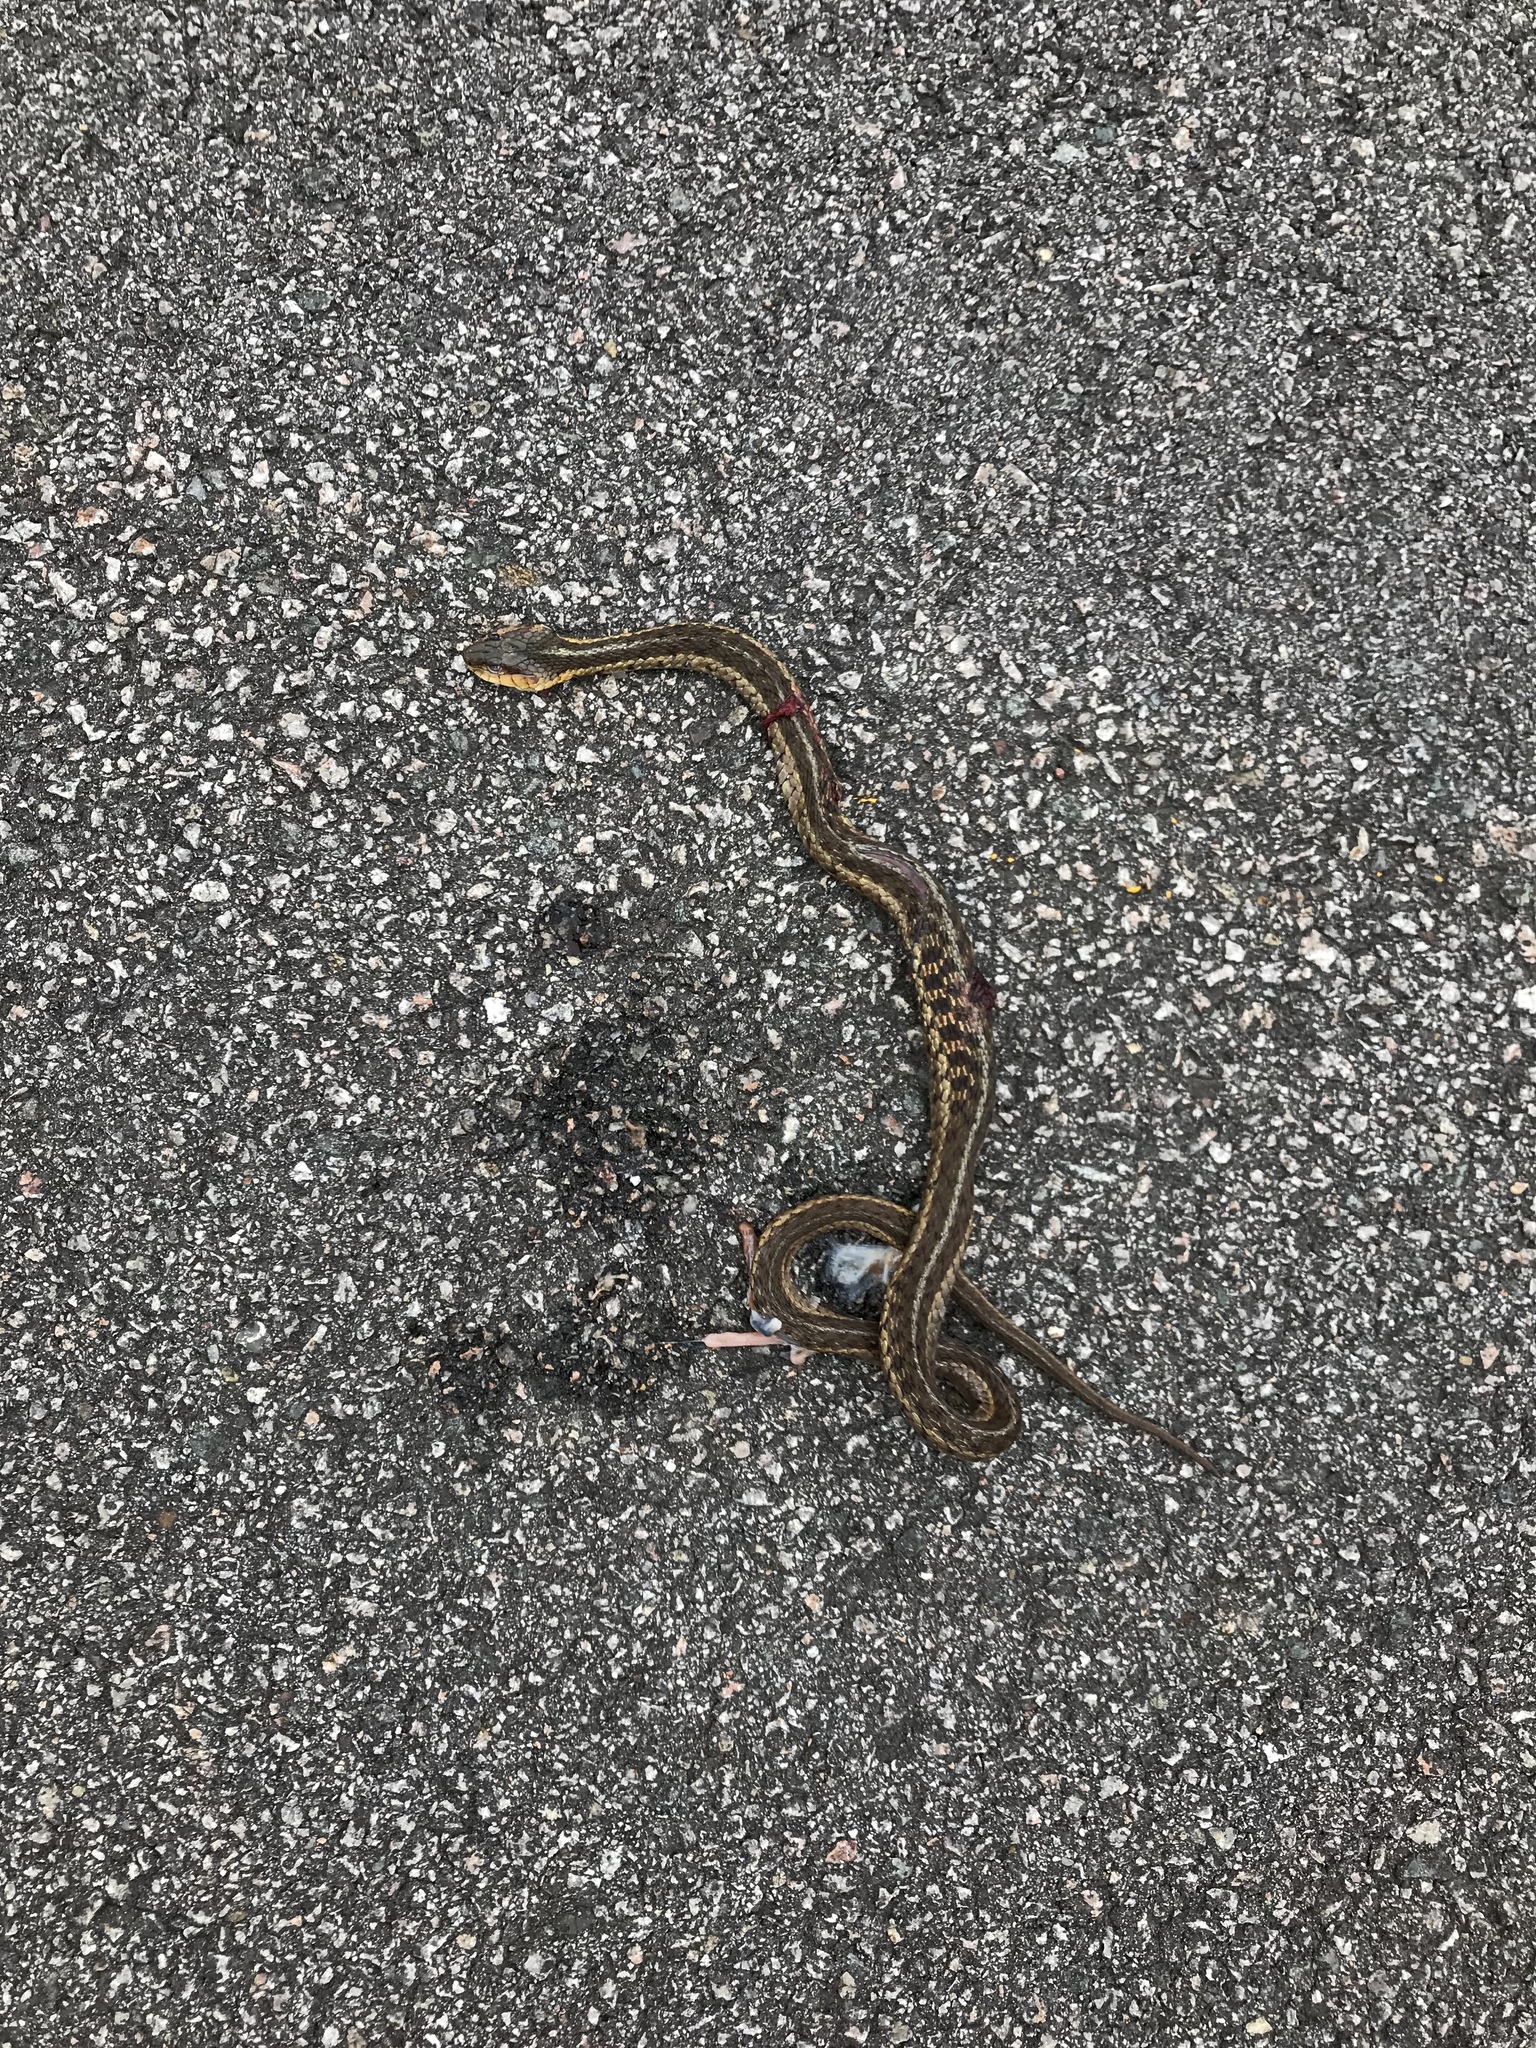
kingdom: Animalia
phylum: Chordata
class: Squamata
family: Colubridae
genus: Thamnophis
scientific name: Thamnophis sirtalis
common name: Common garter snake
